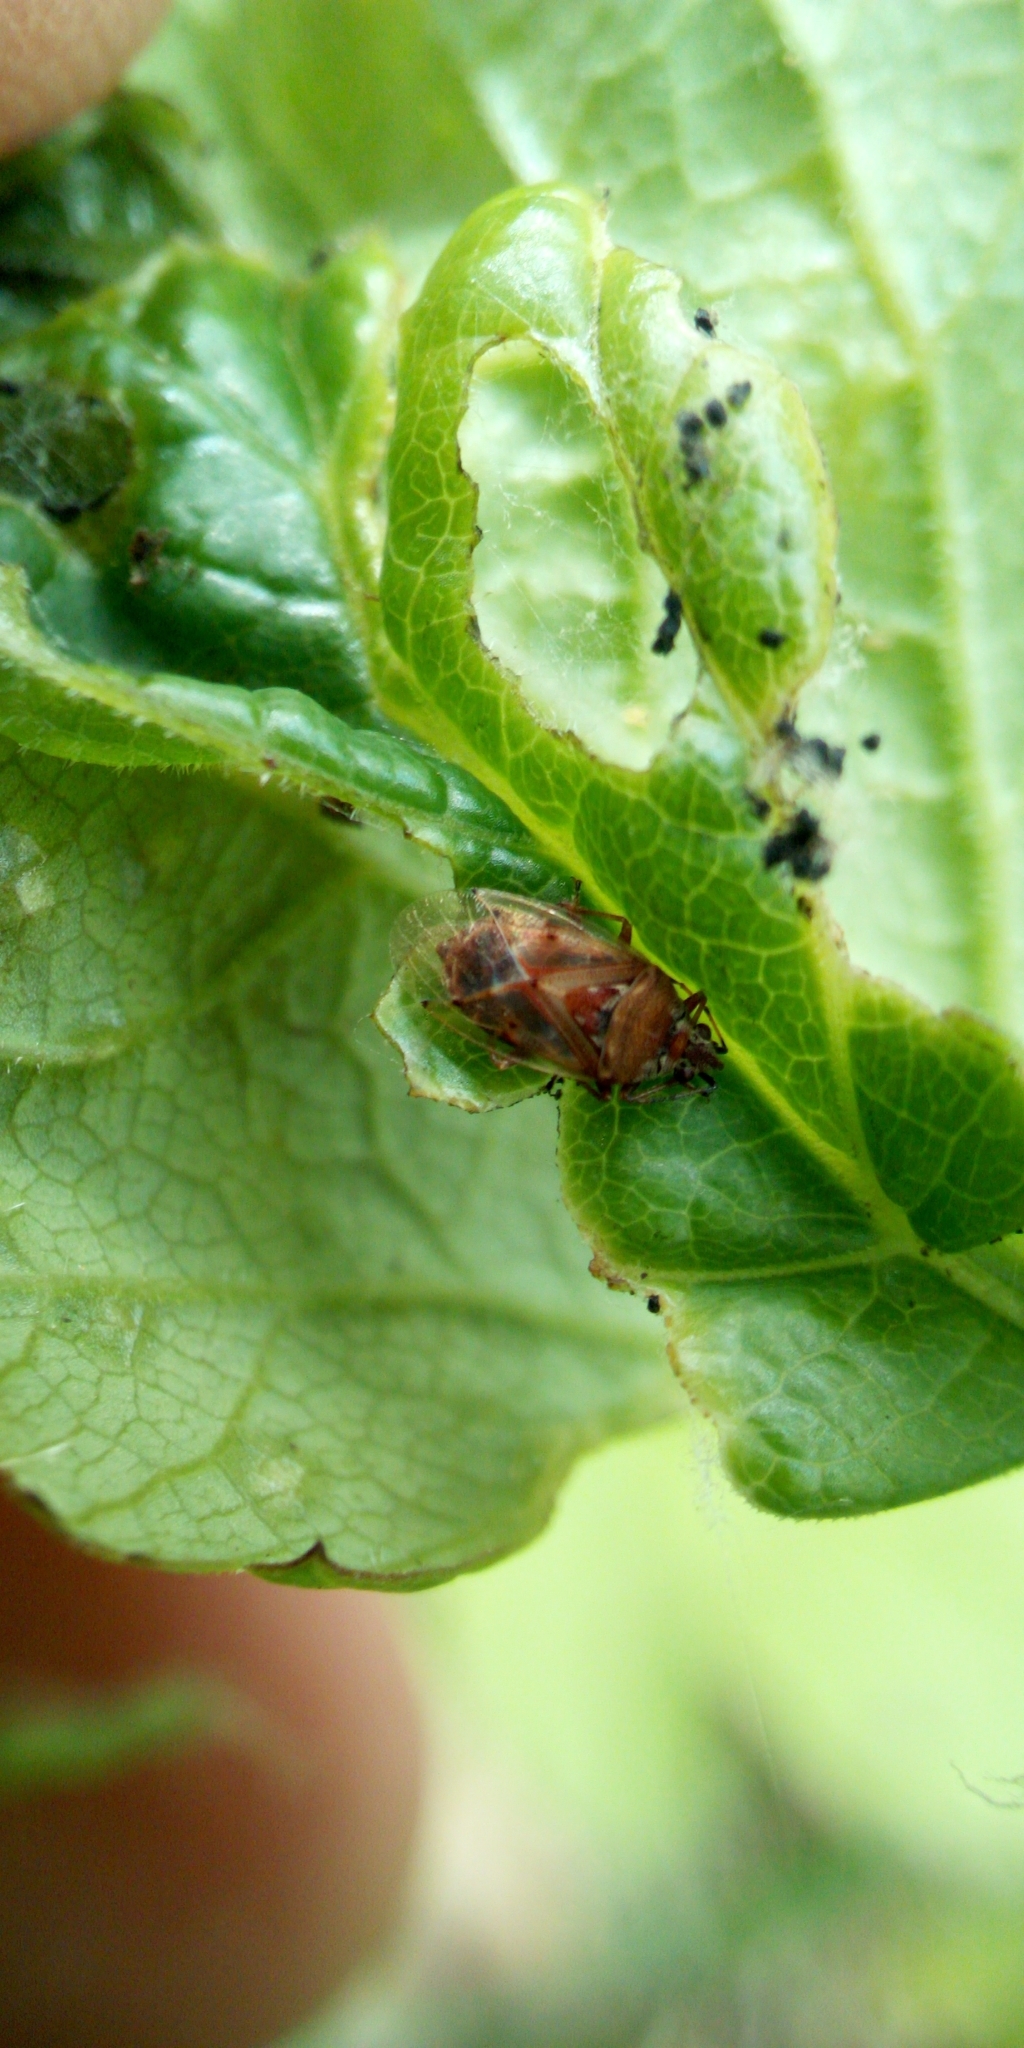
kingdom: Animalia
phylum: Arthropoda
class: Insecta
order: Hemiptera
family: Lygaeidae
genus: Kleidocerys
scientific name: Kleidocerys resedae
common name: Birch catkin bug
